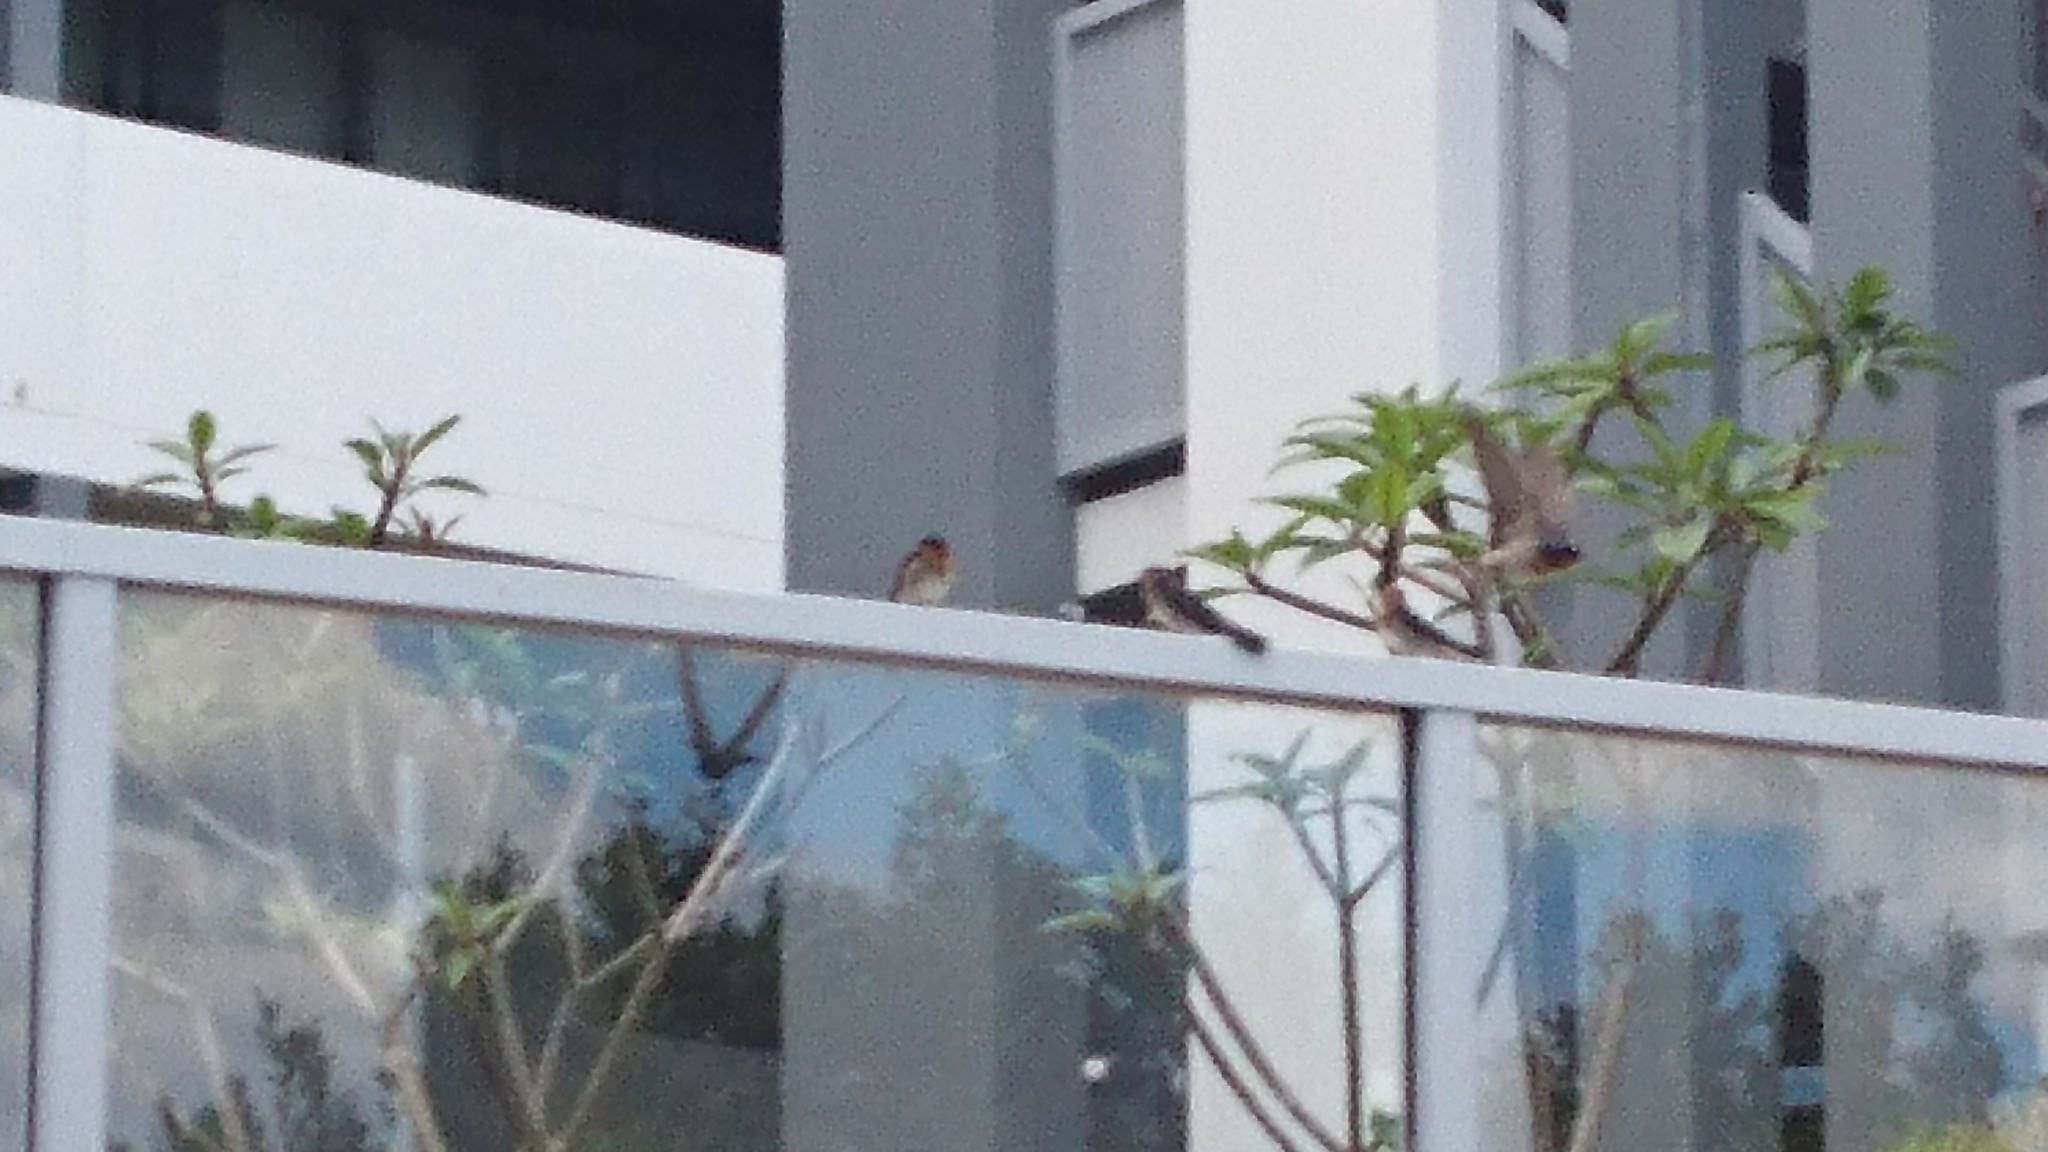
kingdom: Animalia
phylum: Chordata
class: Aves
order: Passeriformes
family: Hirundinidae
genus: Hirundo
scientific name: Hirundo neoxena
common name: Welcome swallow
